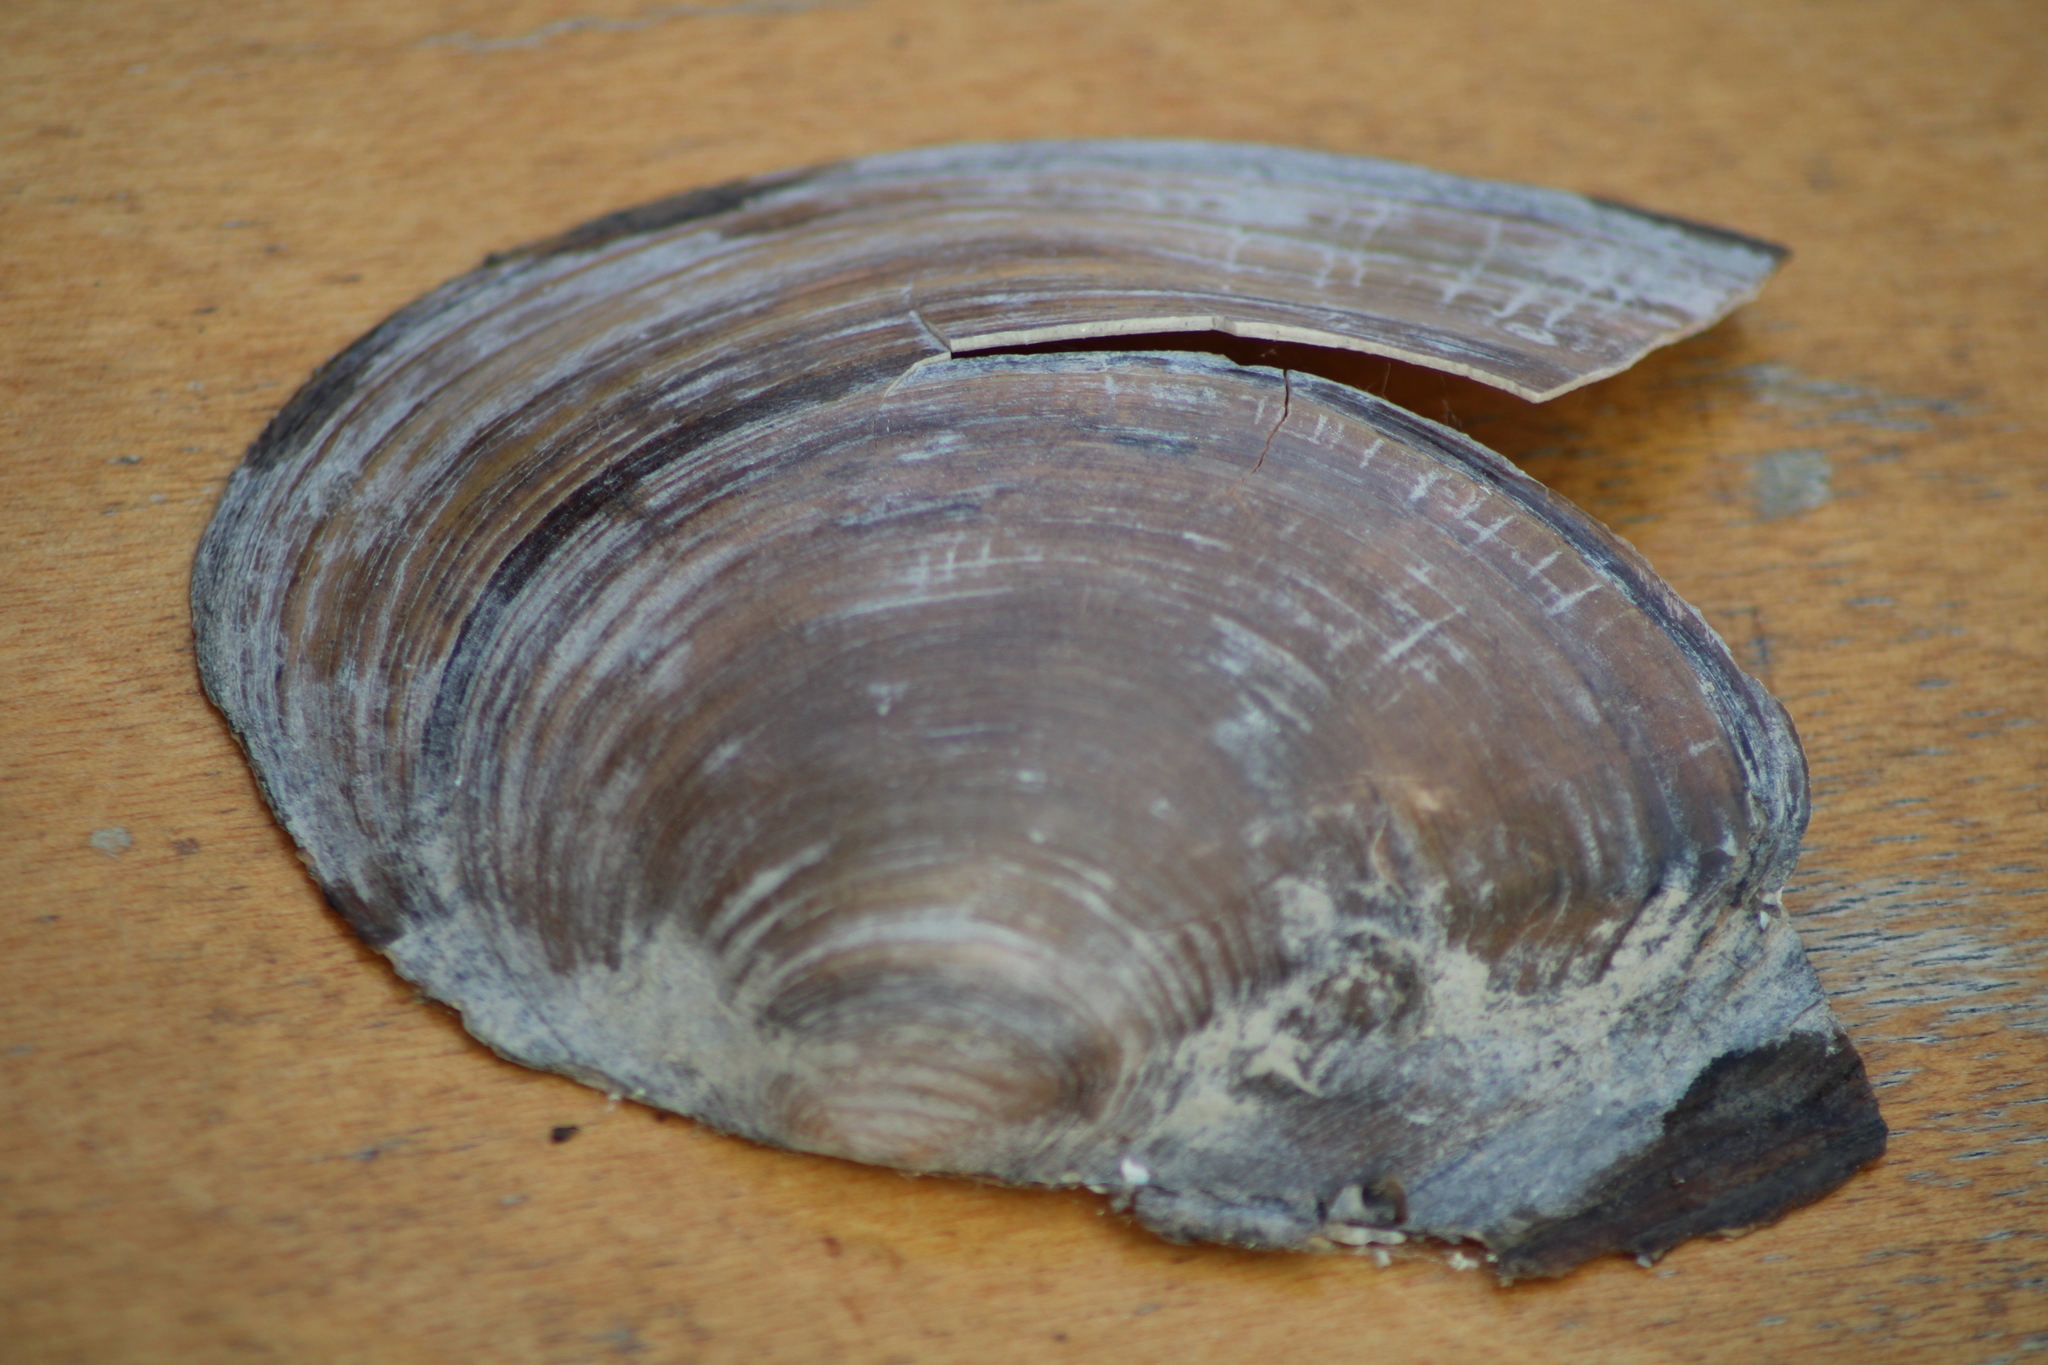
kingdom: Animalia
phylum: Mollusca
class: Bivalvia
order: Unionida
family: Unionidae
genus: Sinanodonta
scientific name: Sinanodonta woodiana
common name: Chinese pond mussel
